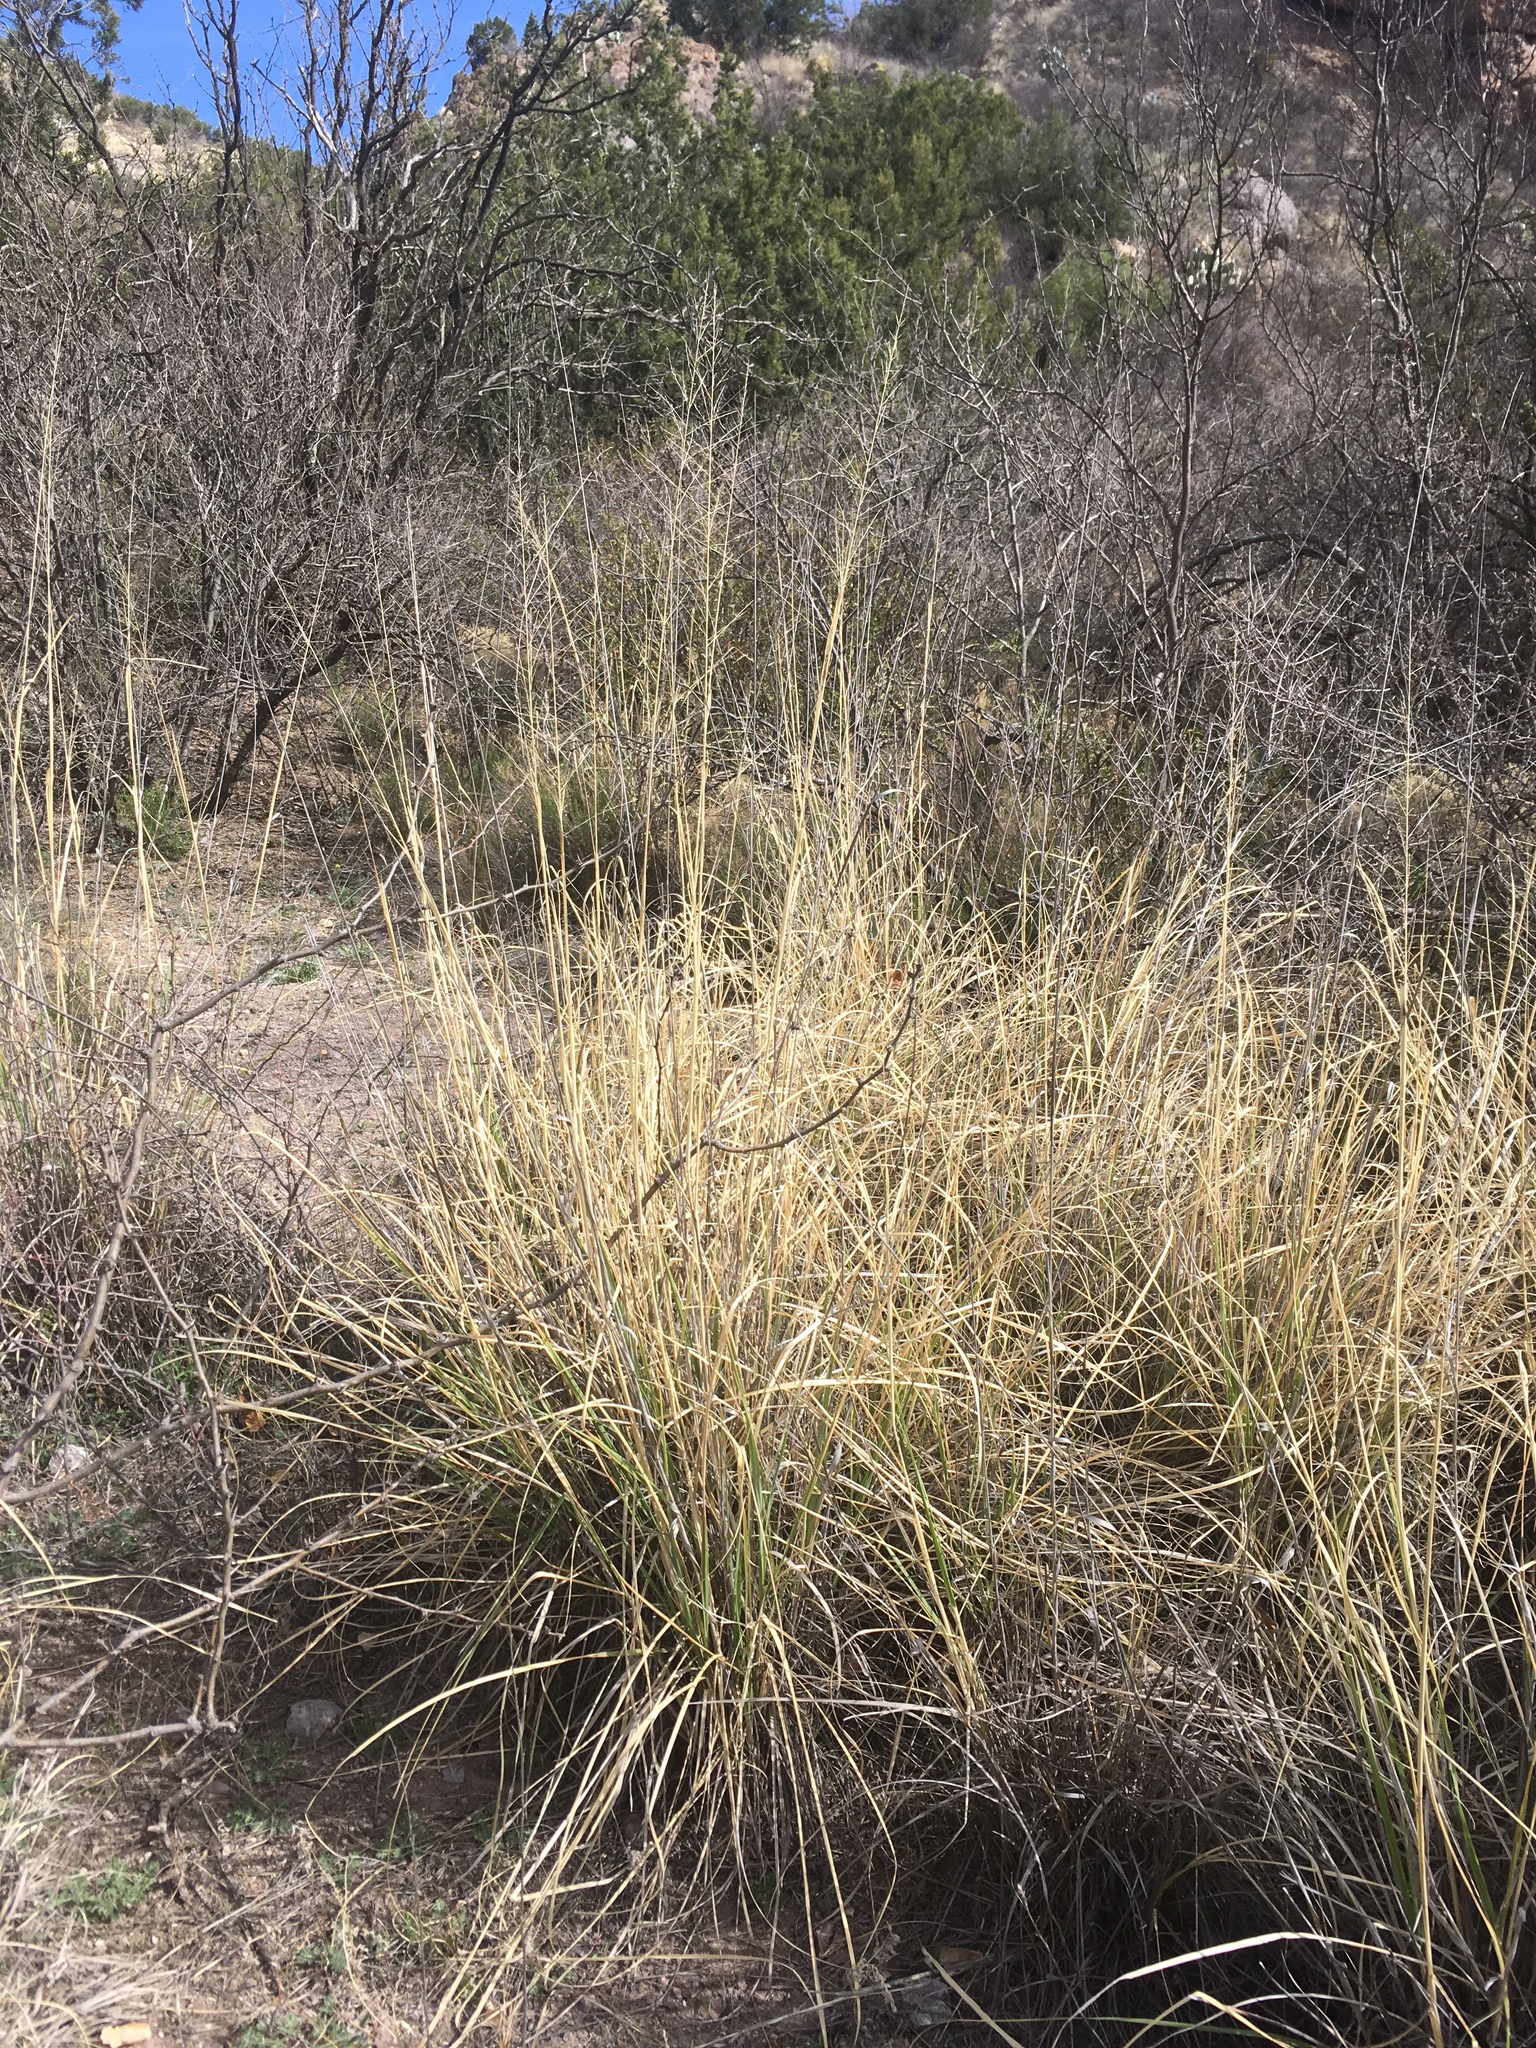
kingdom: Plantae
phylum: Tracheophyta
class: Liliopsida
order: Poales
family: Poaceae
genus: Sporobolus
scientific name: Sporobolus wrightii
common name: Big alkali sacaton
